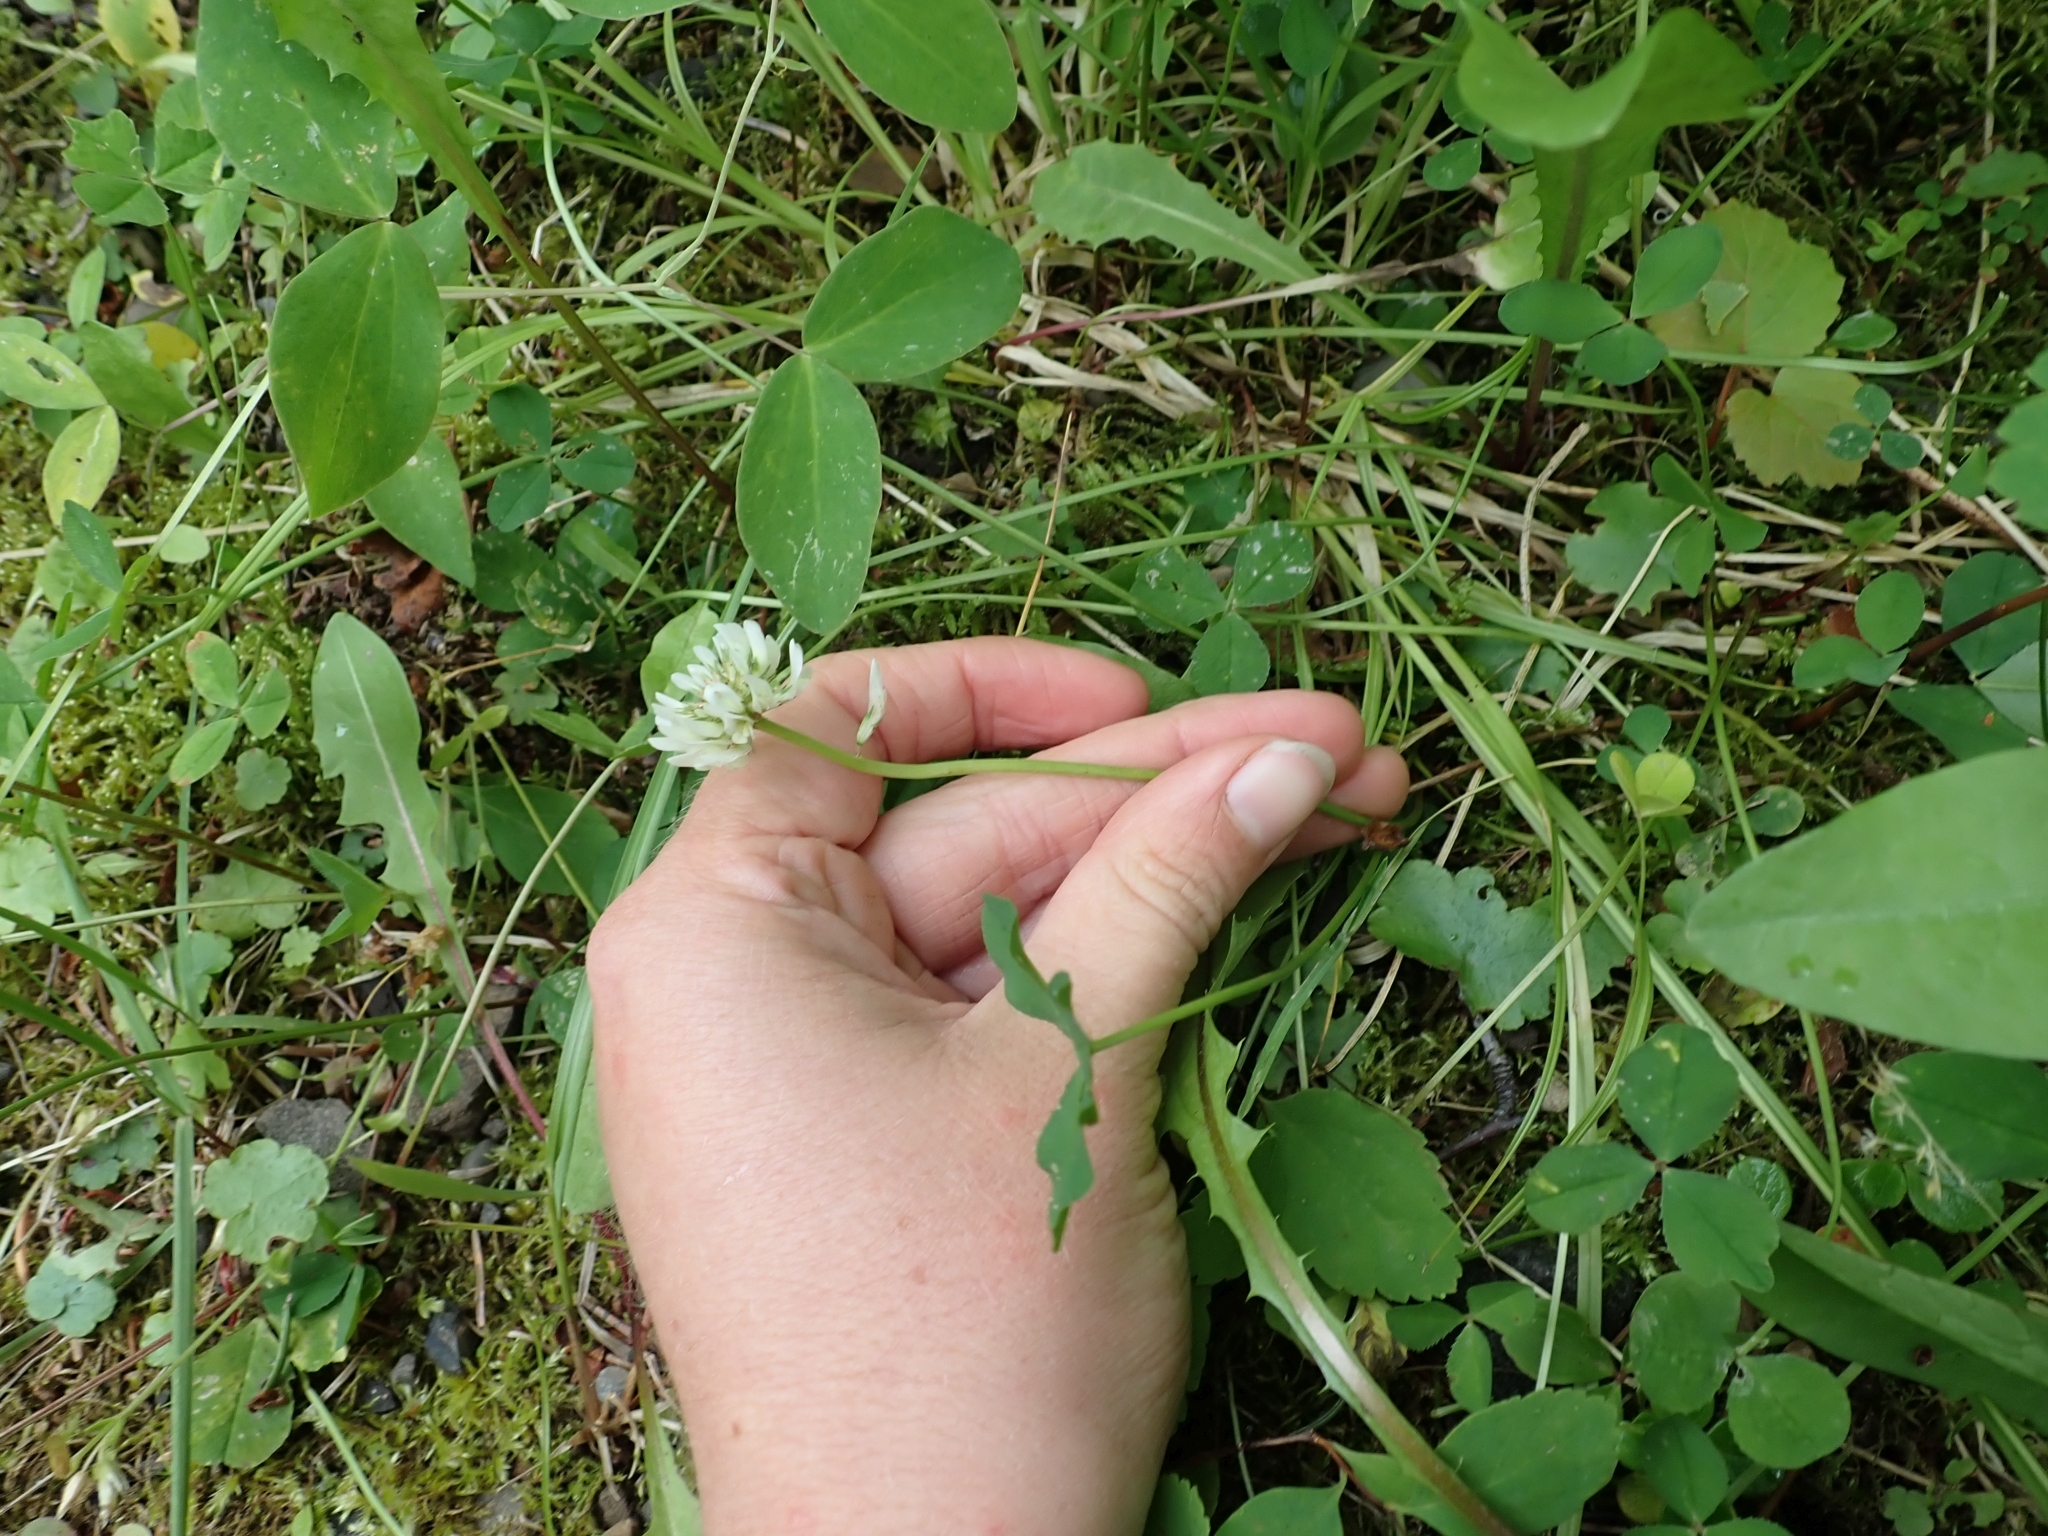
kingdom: Plantae
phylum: Tracheophyta
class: Magnoliopsida
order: Fabales
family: Fabaceae
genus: Trifolium
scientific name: Trifolium repens
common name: White clover
